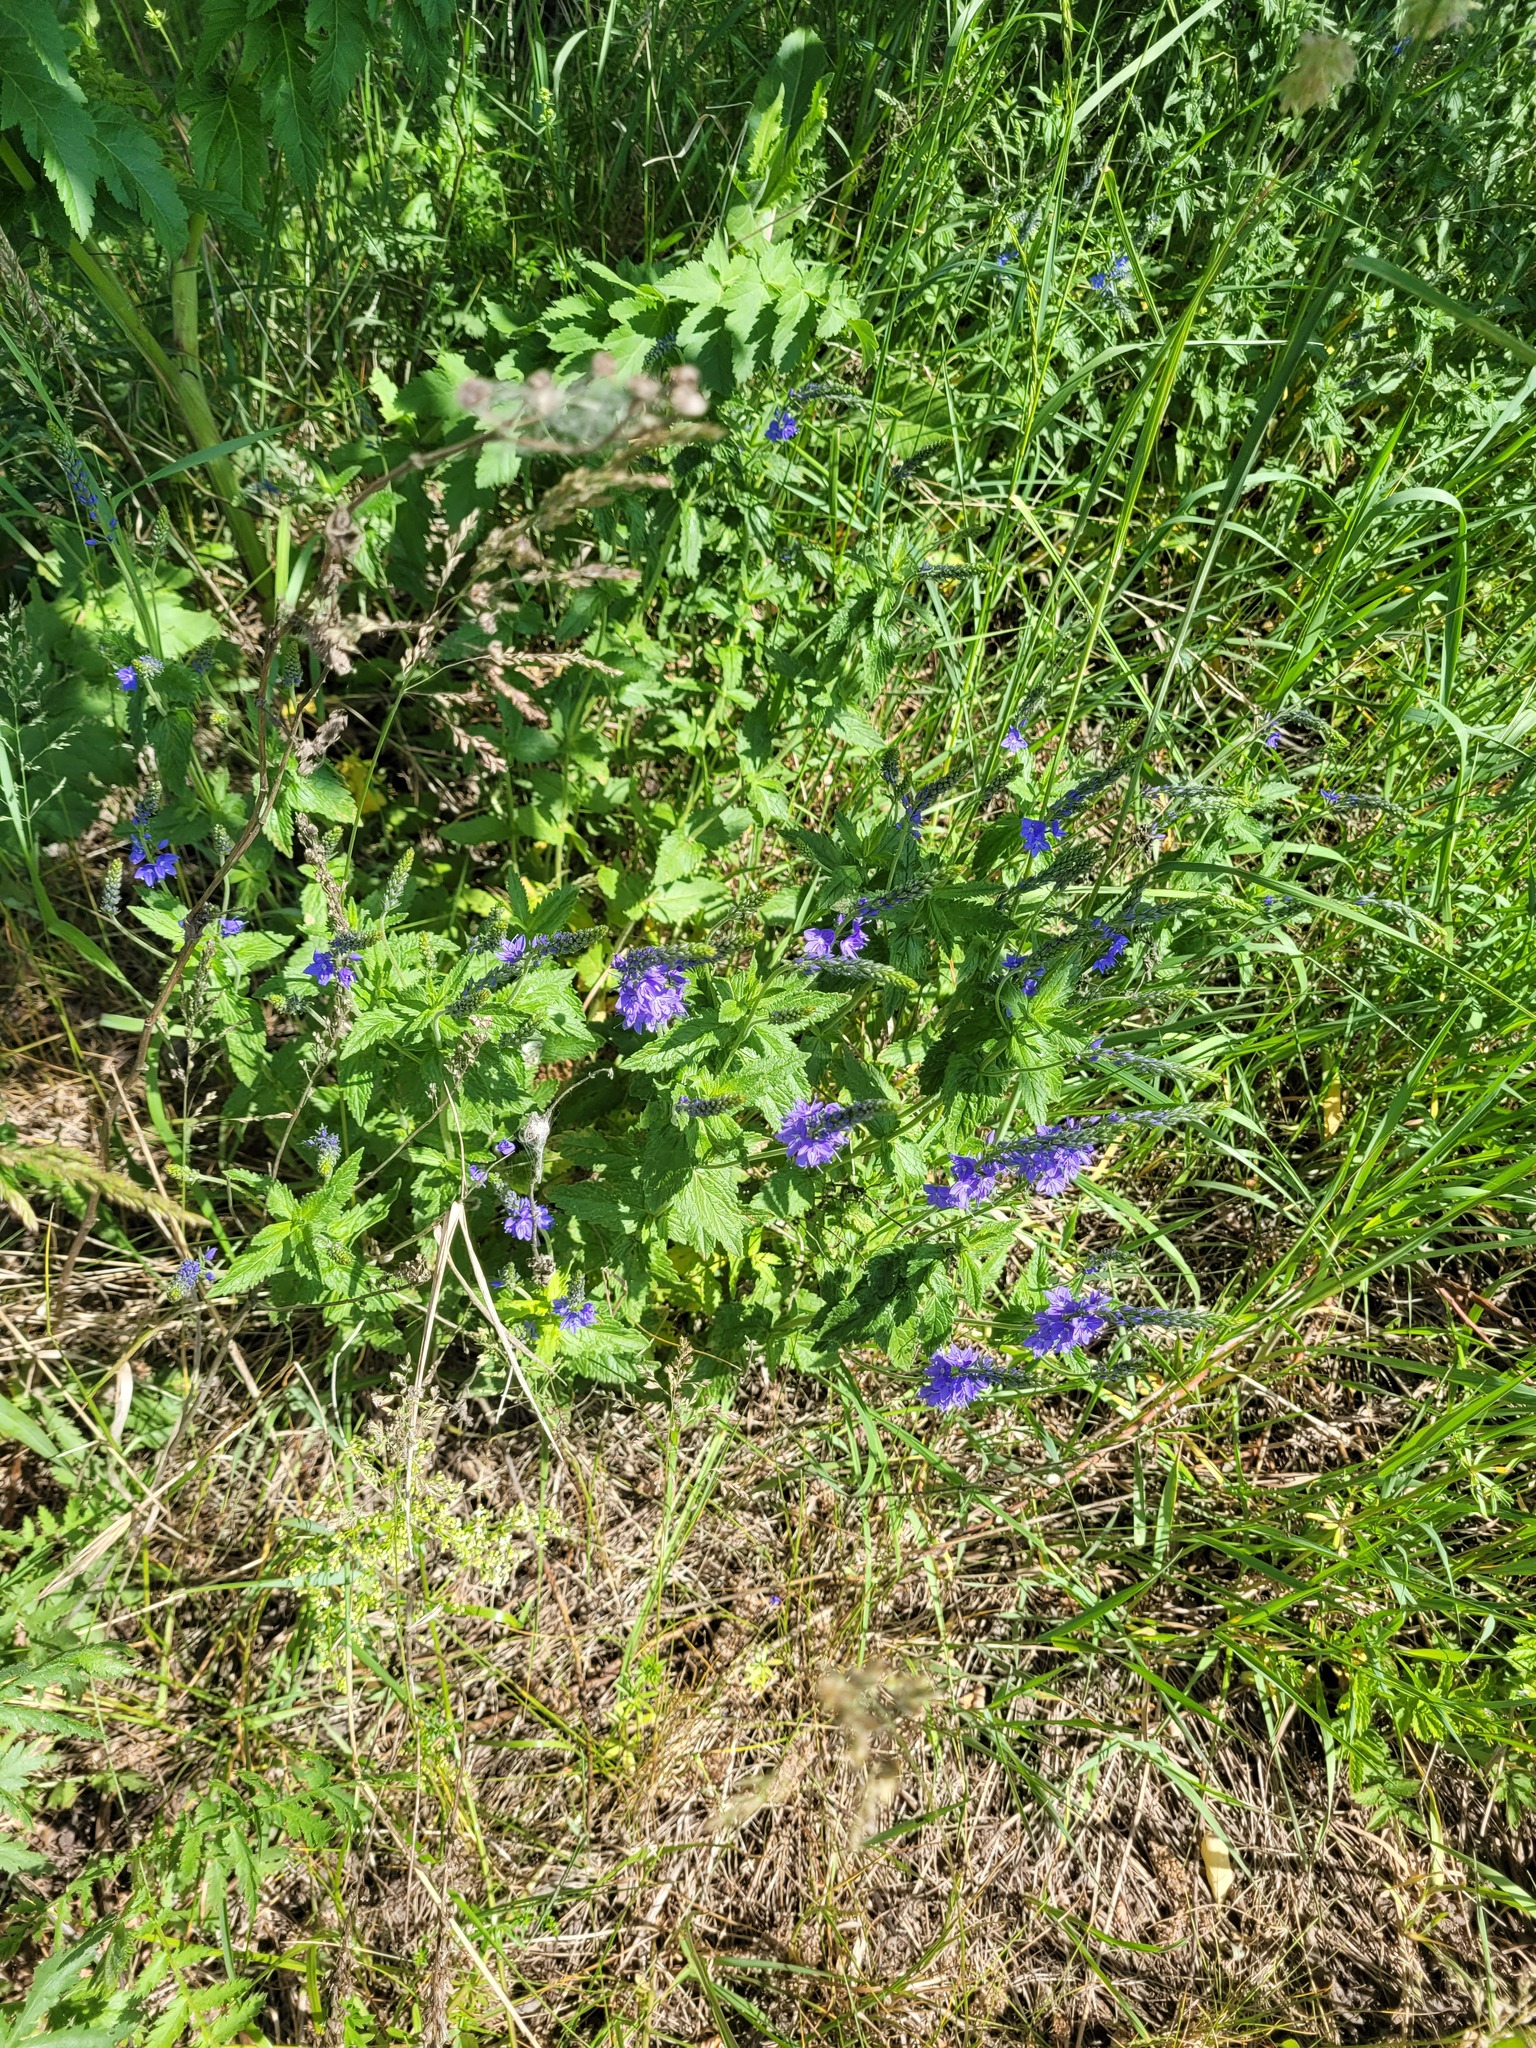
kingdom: Plantae
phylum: Tracheophyta
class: Magnoliopsida
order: Lamiales
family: Plantaginaceae
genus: Veronica
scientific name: Veronica teucrium
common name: Large speedwell
